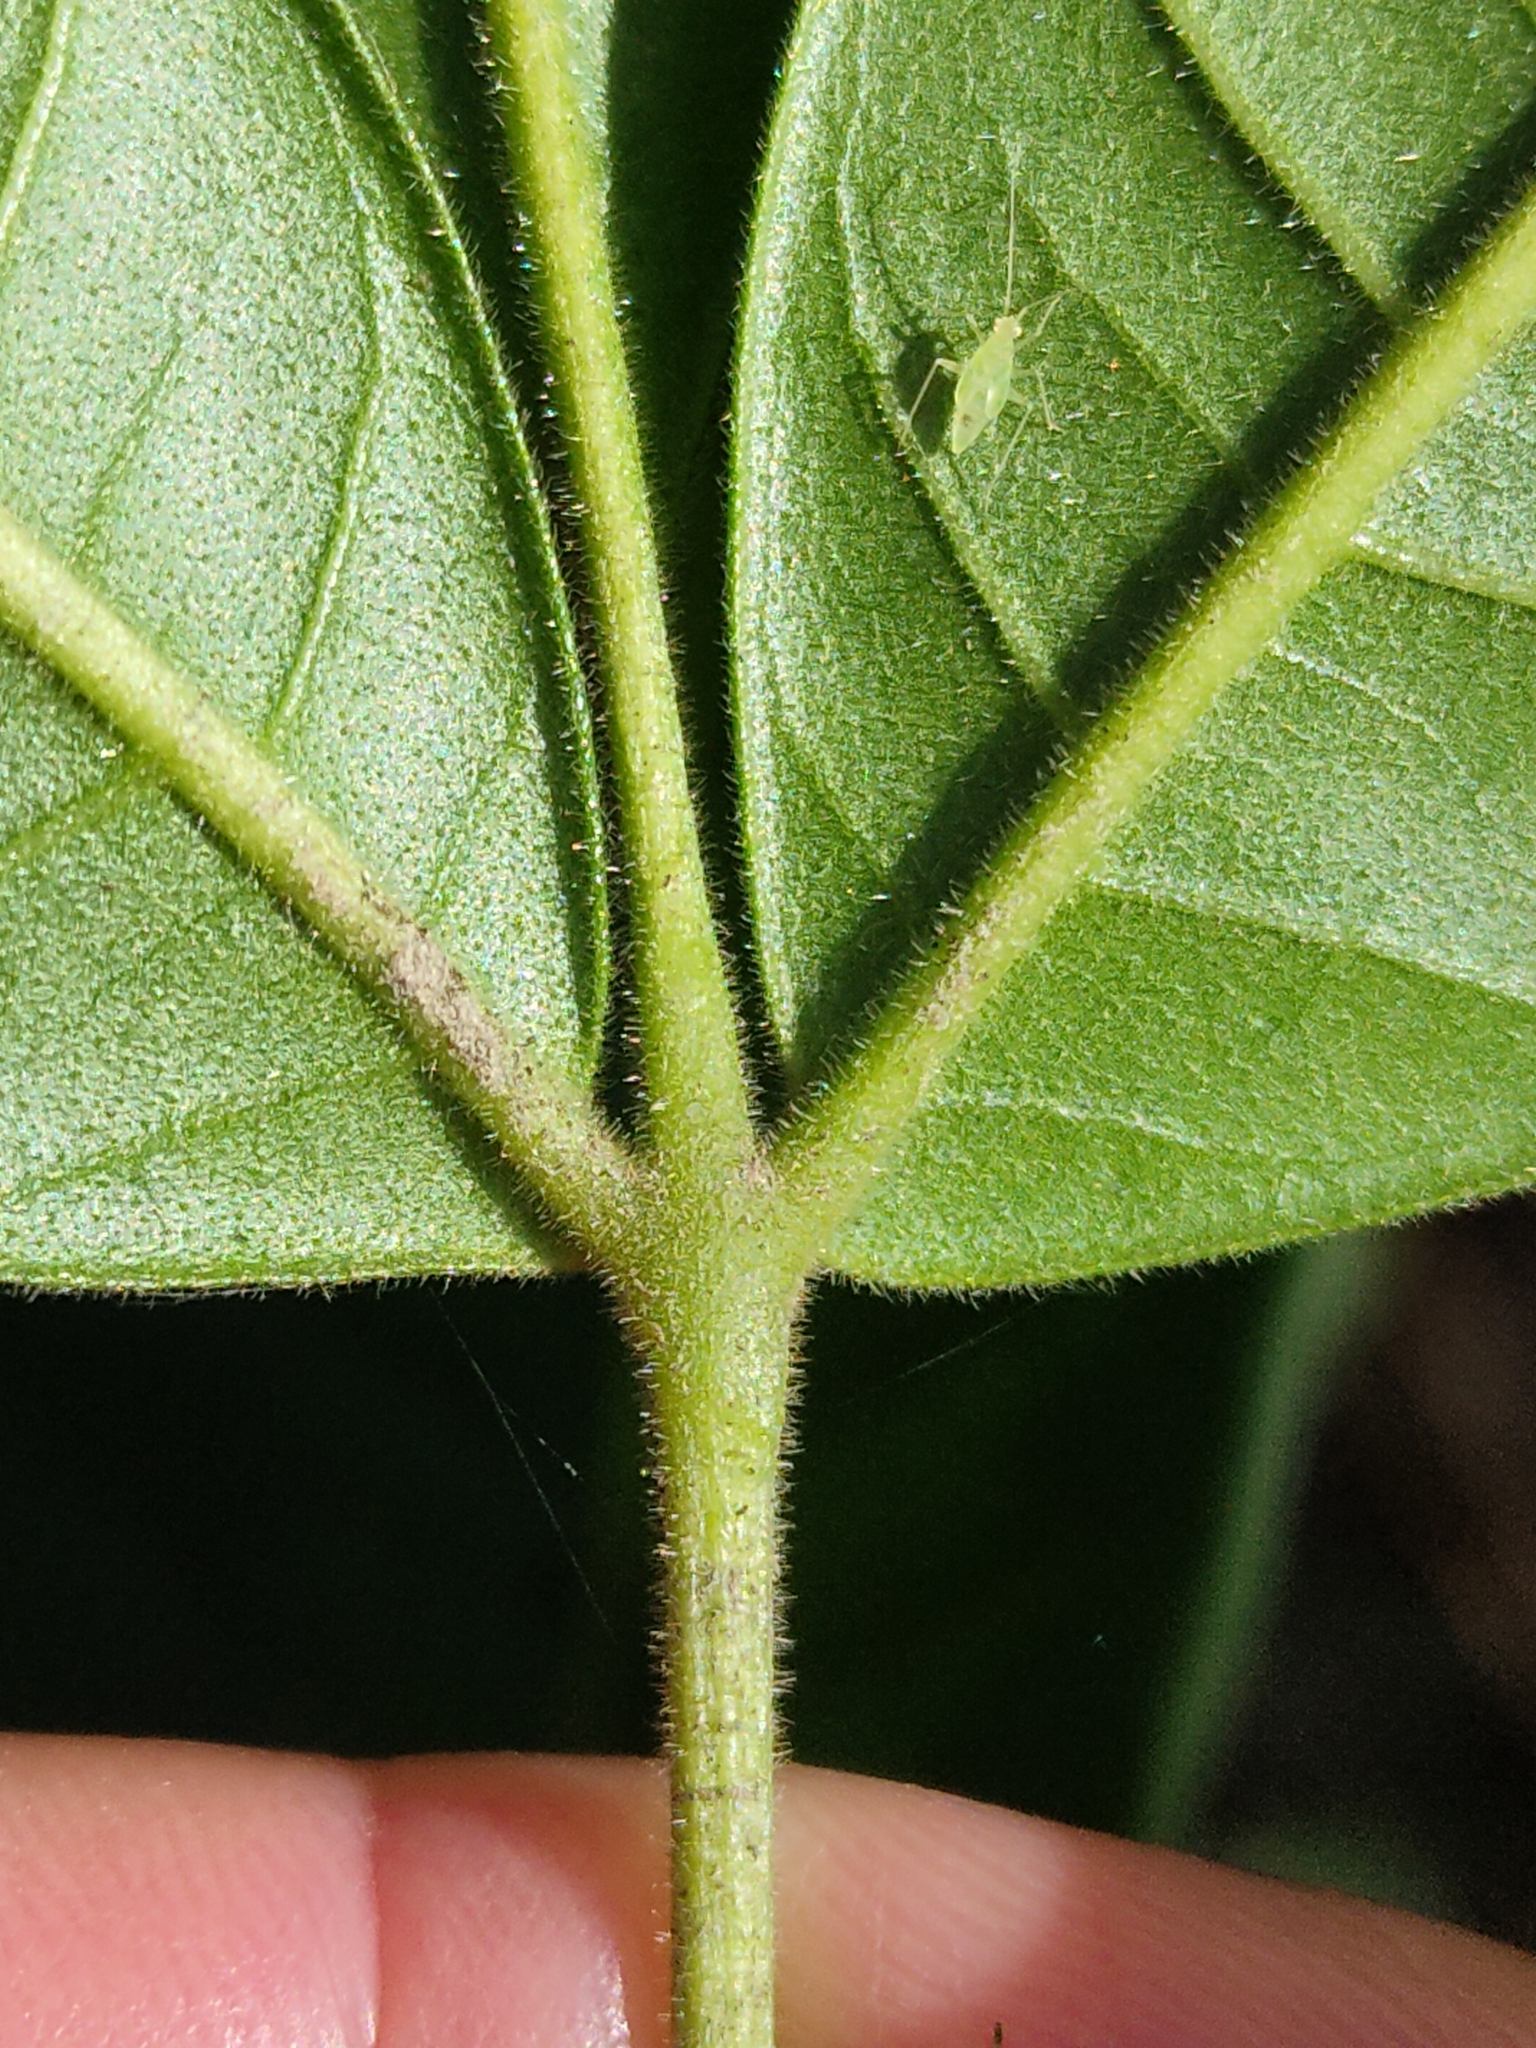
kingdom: Plantae
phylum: Tracheophyta
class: Magnoliopsida
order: Sapindales
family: Rutaceae
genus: Flindersia
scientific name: Flindersia schottiana
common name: Silver ash
